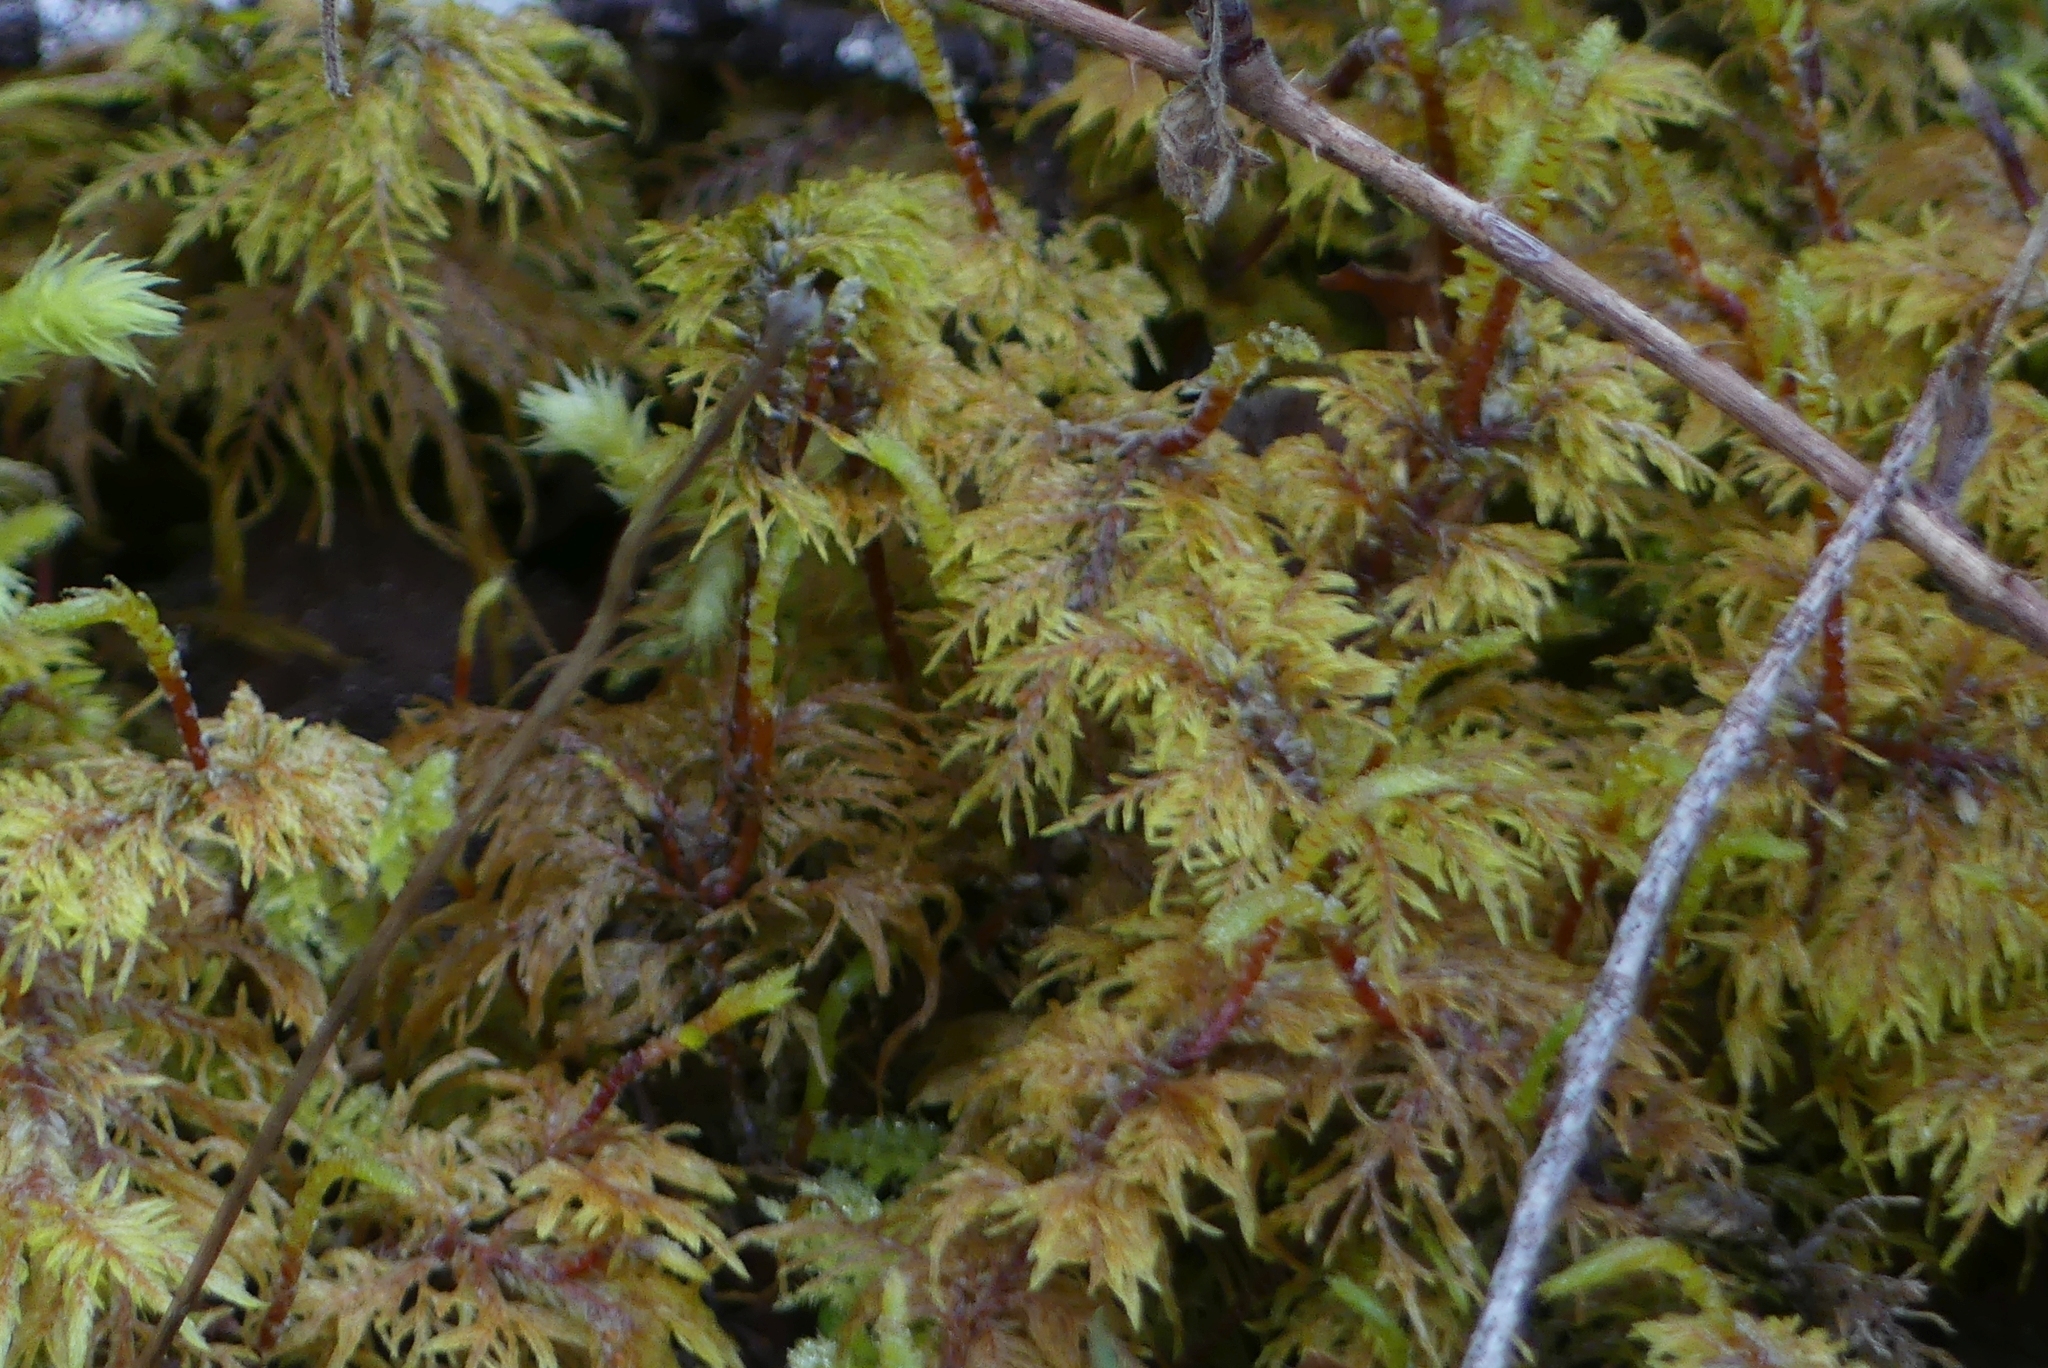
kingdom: Plantae
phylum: Bryophyta
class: Bryopsida
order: Hypnales
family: Hylocomiaceae
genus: Hylocomium
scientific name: Hylocomium splendens
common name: Stairstep moss
